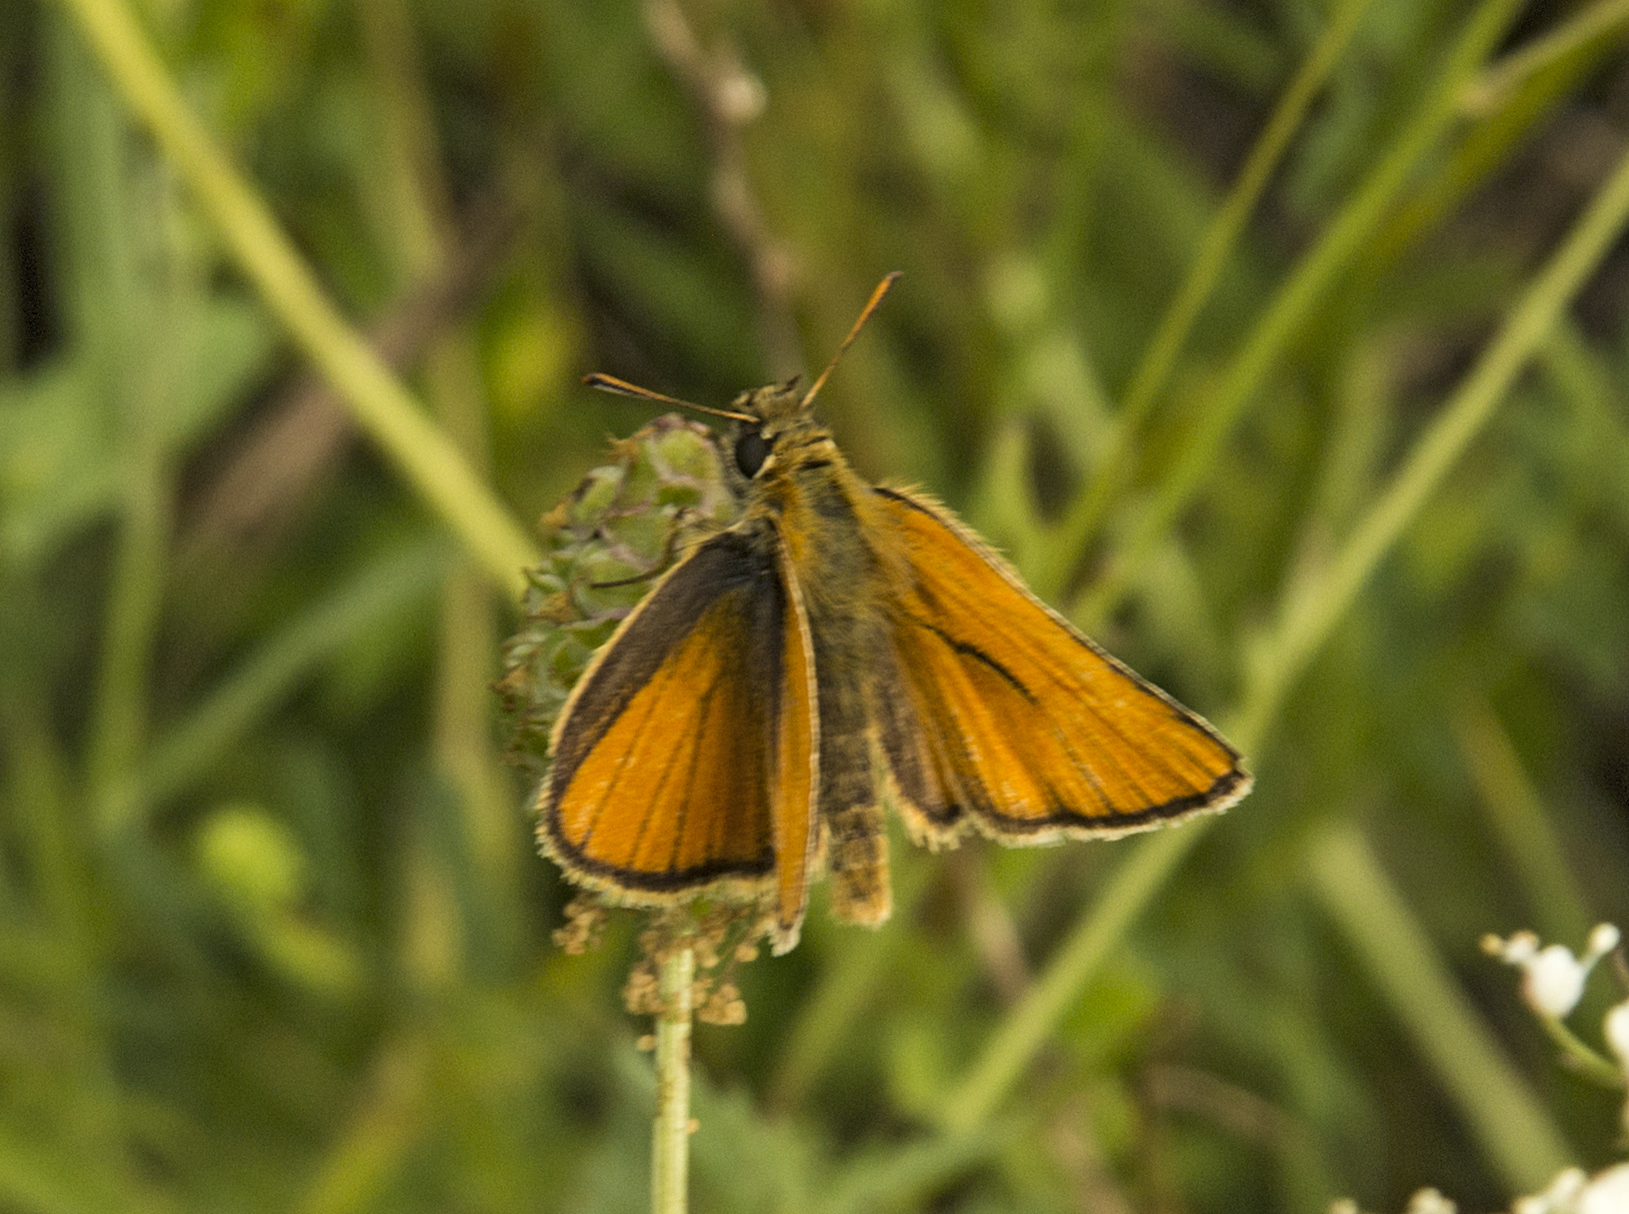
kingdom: Animalia
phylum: Arthropoda
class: Insecta
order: Lepidoptera
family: Hesperiidae
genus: Thymelicus
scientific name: Thymelicus sylvestris
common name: Small skipper
